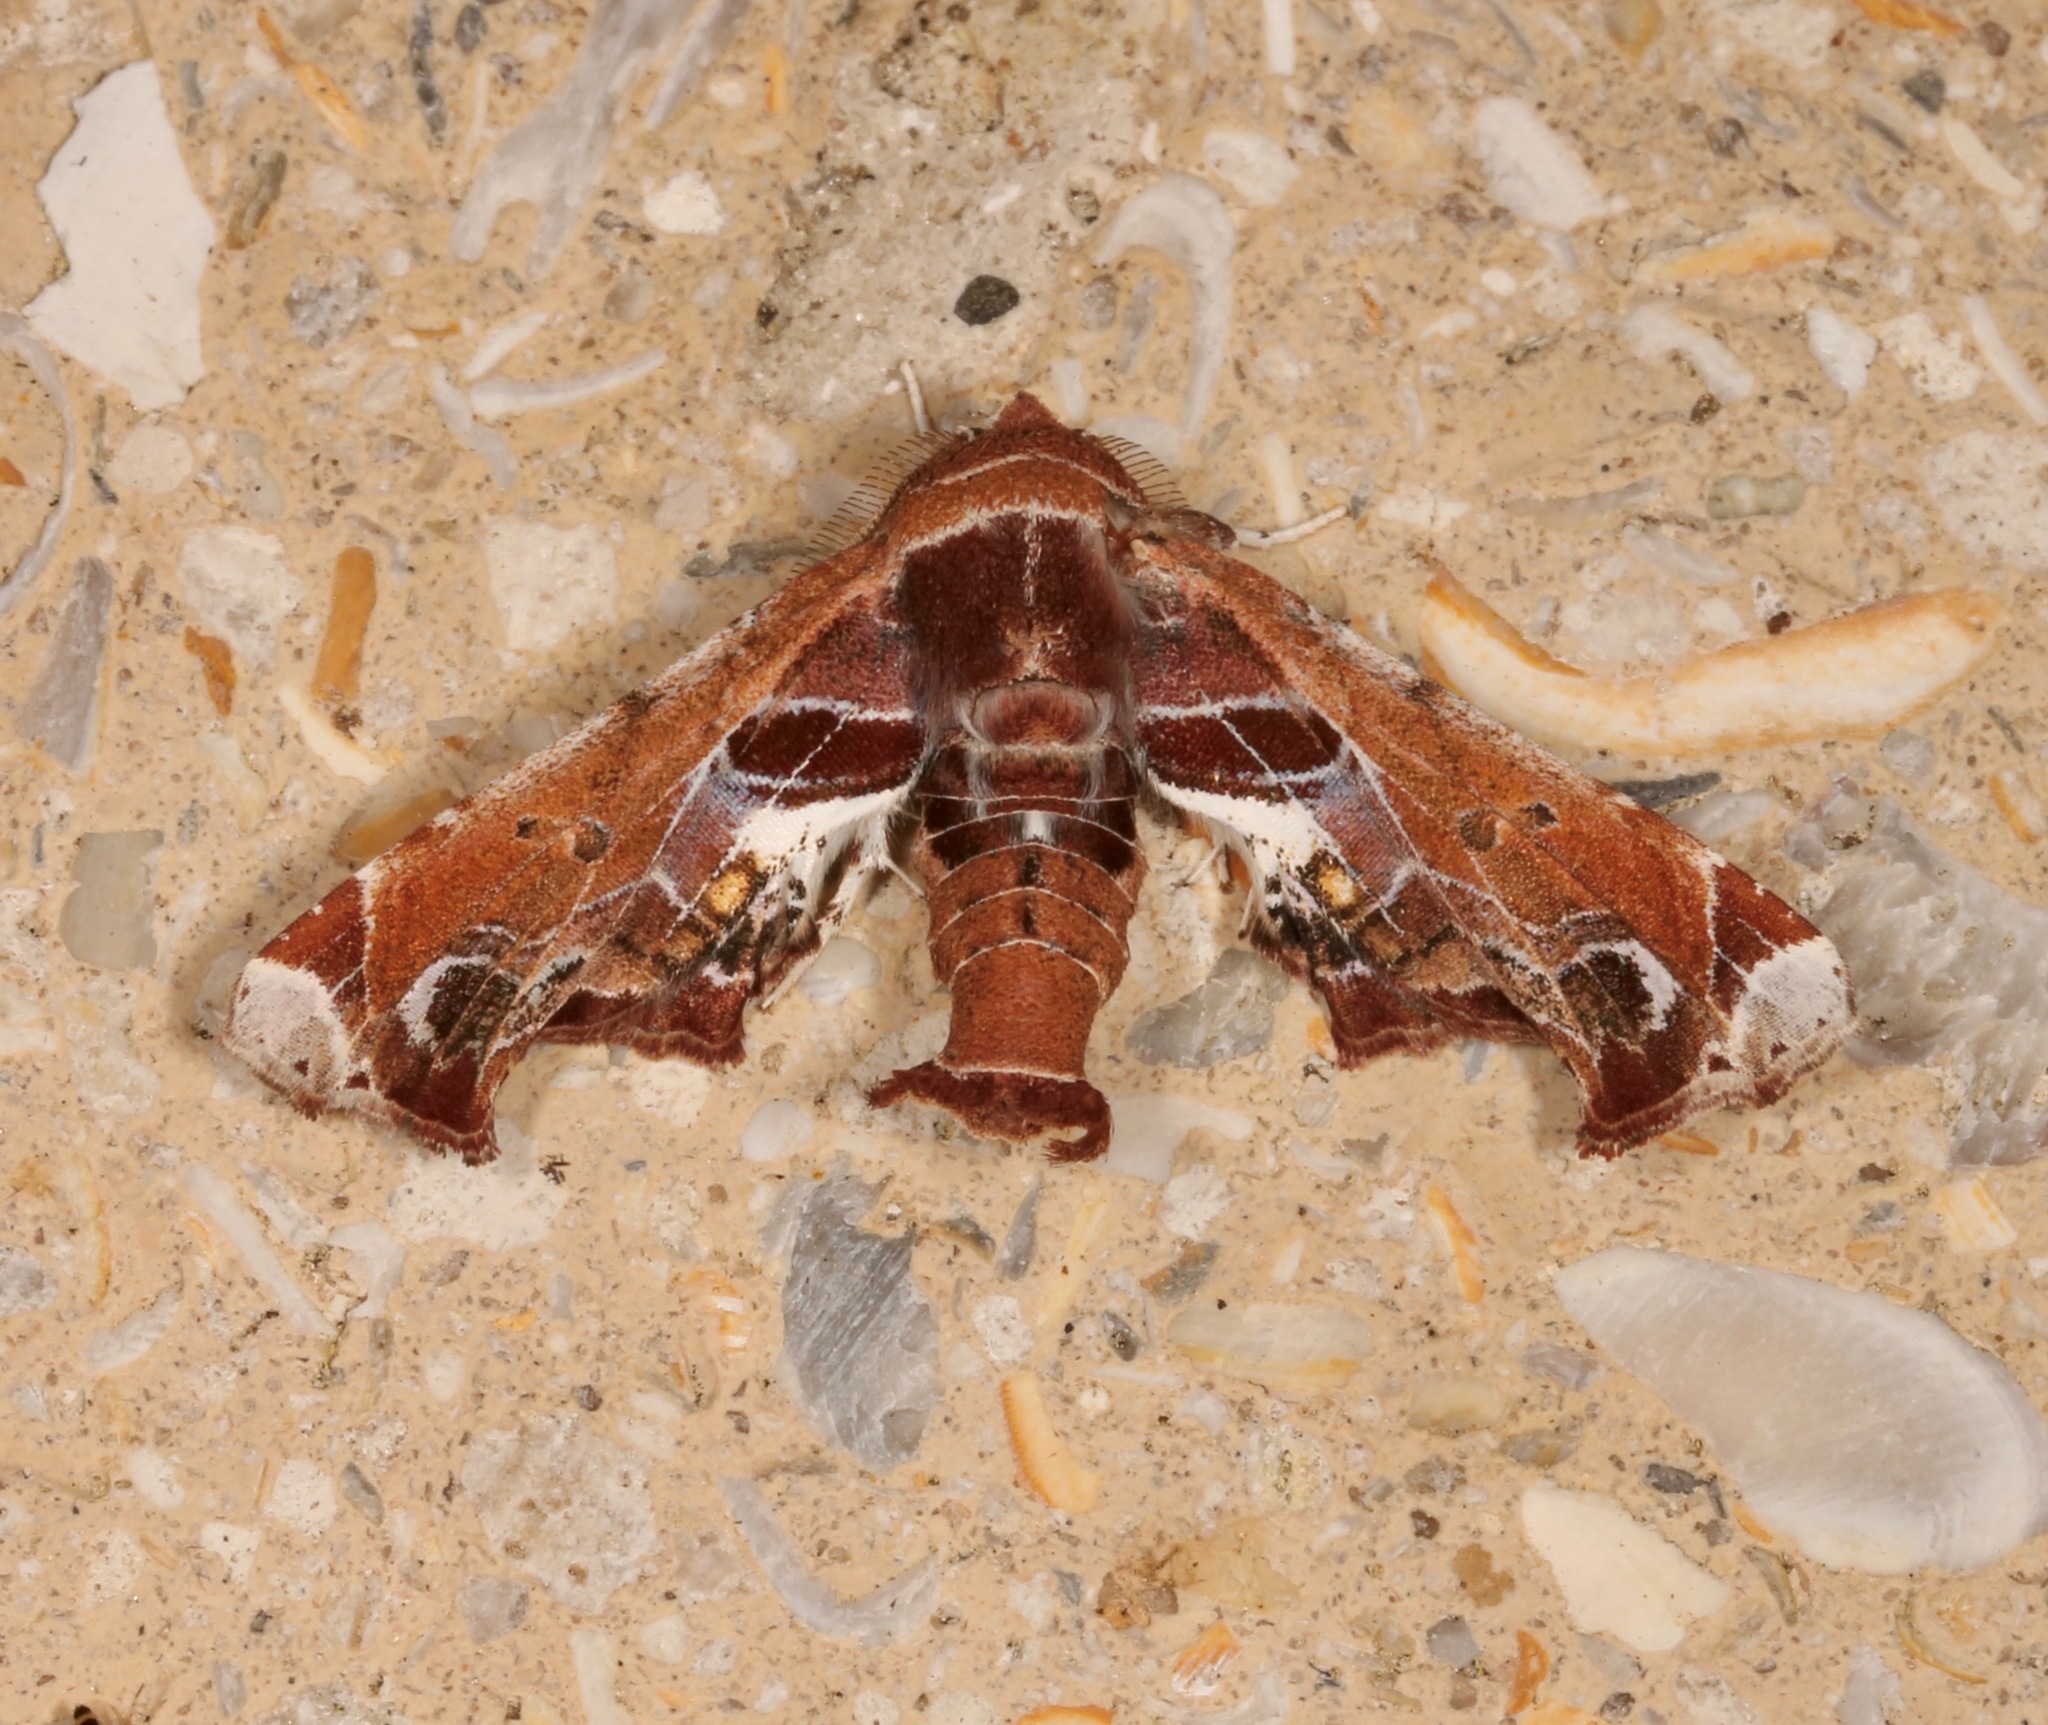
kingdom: Animalia
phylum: Arthropoda
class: Insecta
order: Lepidoptera
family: Euteliidae
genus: Eutelia
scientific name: Eutelia pulcherrimus
